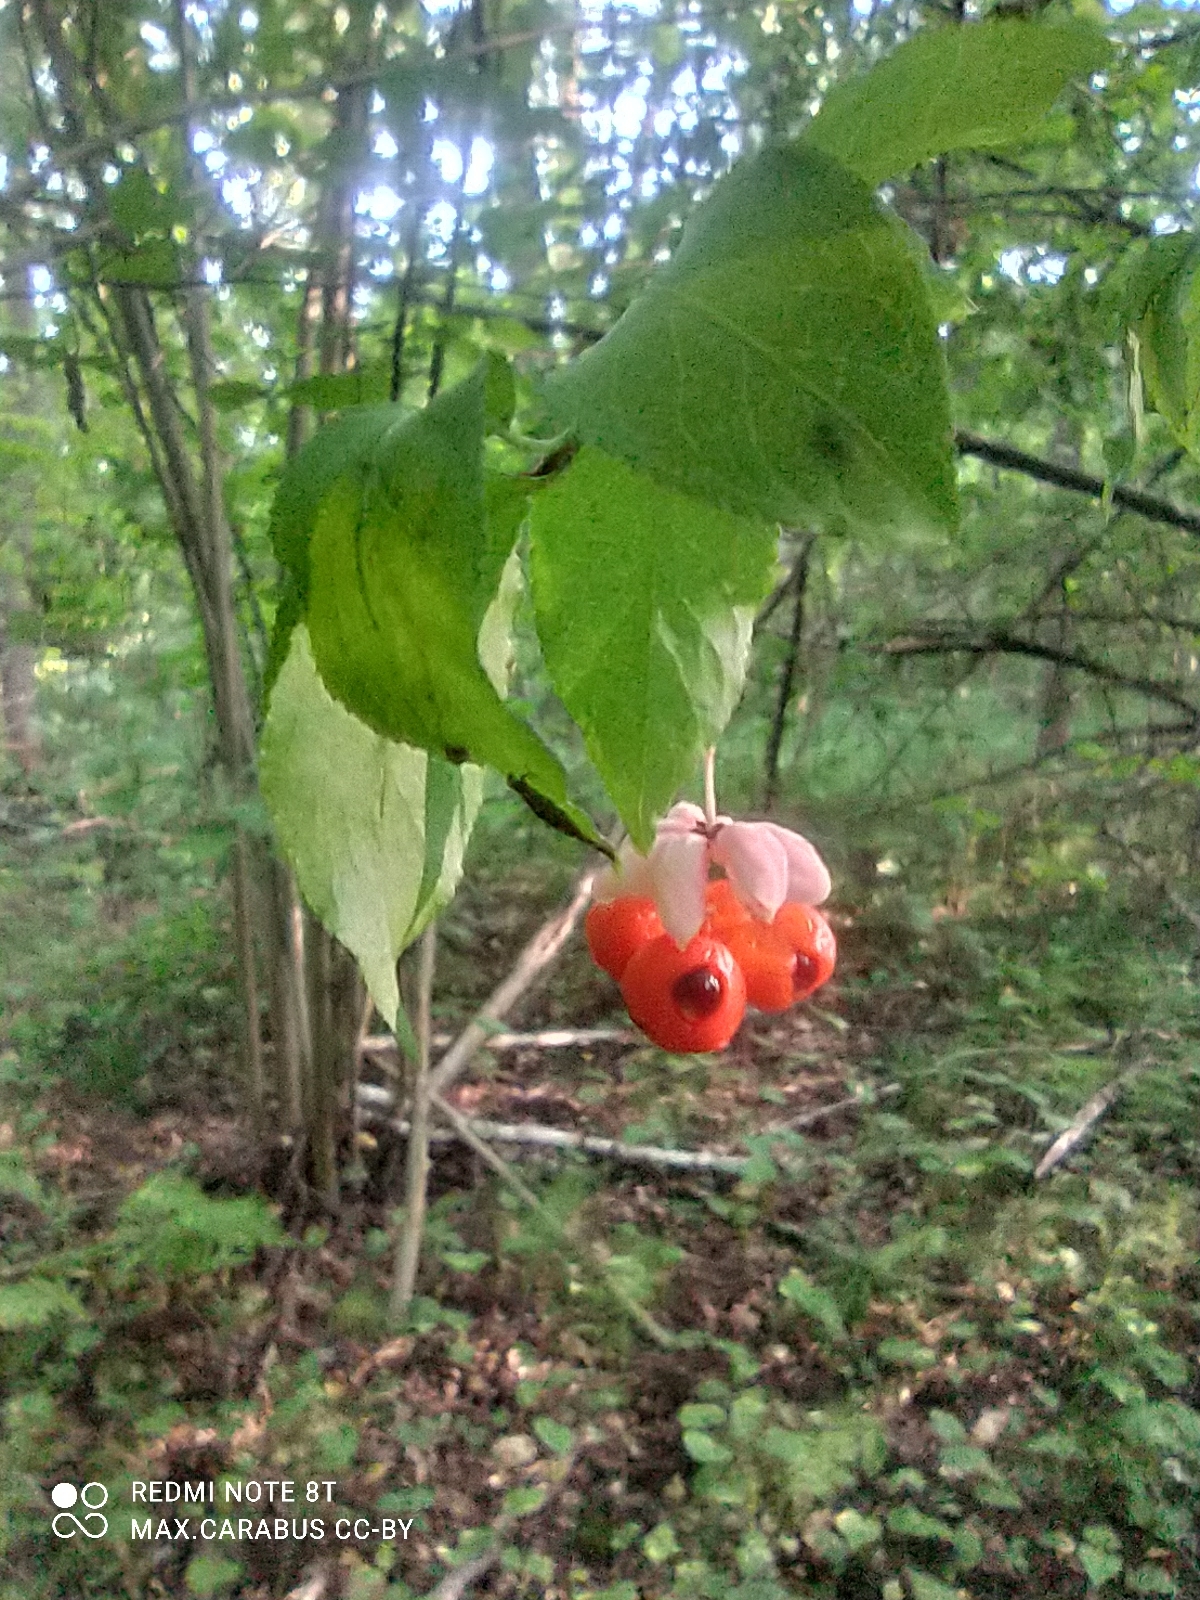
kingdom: Plantae
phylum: Tracheophyta
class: Magnoliopsida
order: Celastrales
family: Celastraceae
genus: Euonymus
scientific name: Euonymus verrucosus
